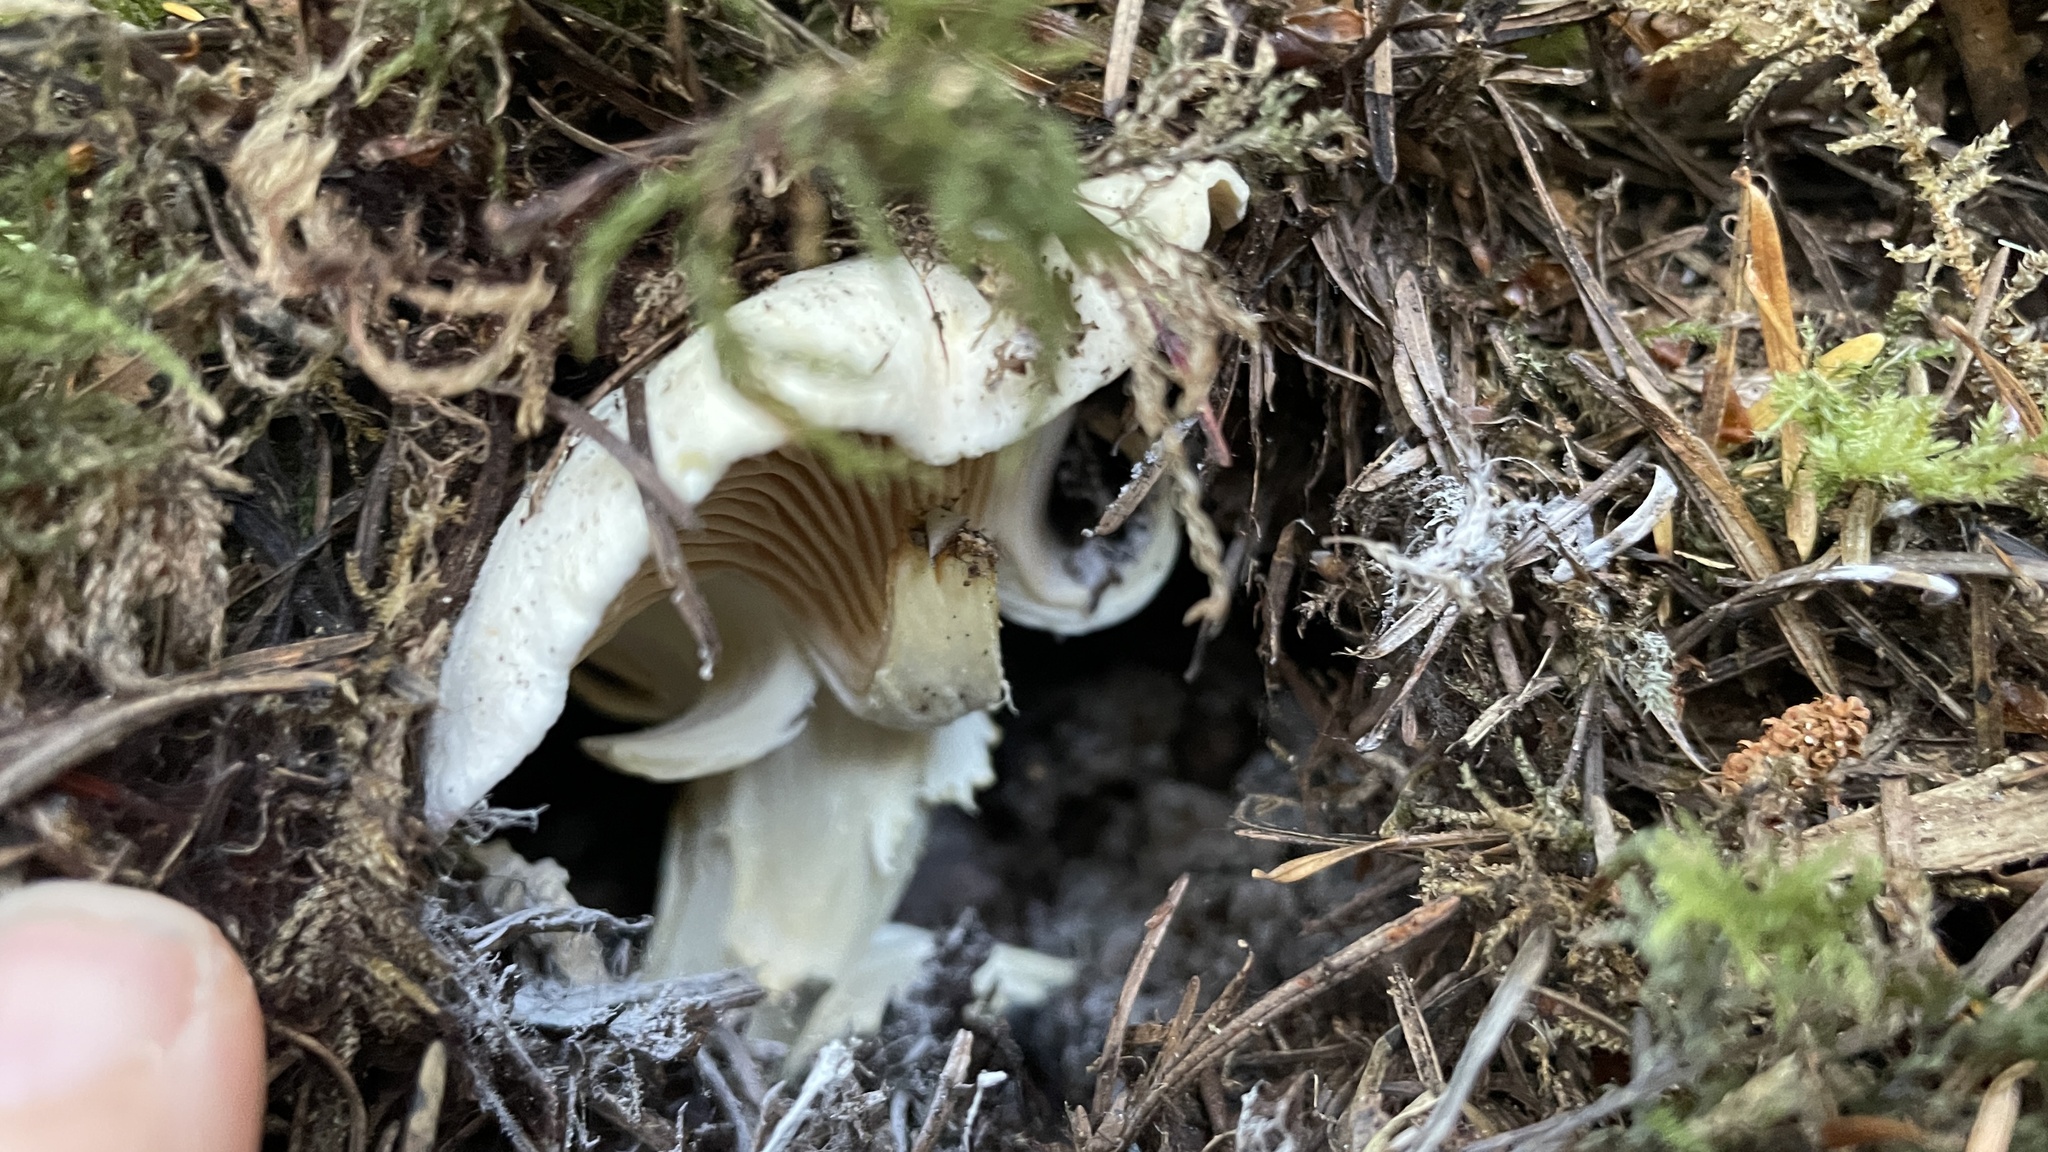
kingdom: Fungi
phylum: Basidiomycota
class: Agaricomycetes
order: Cantharellales
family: Hydnaceae
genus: Cantharellus
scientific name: Cantharellus subalbidus
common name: White chanterelle
